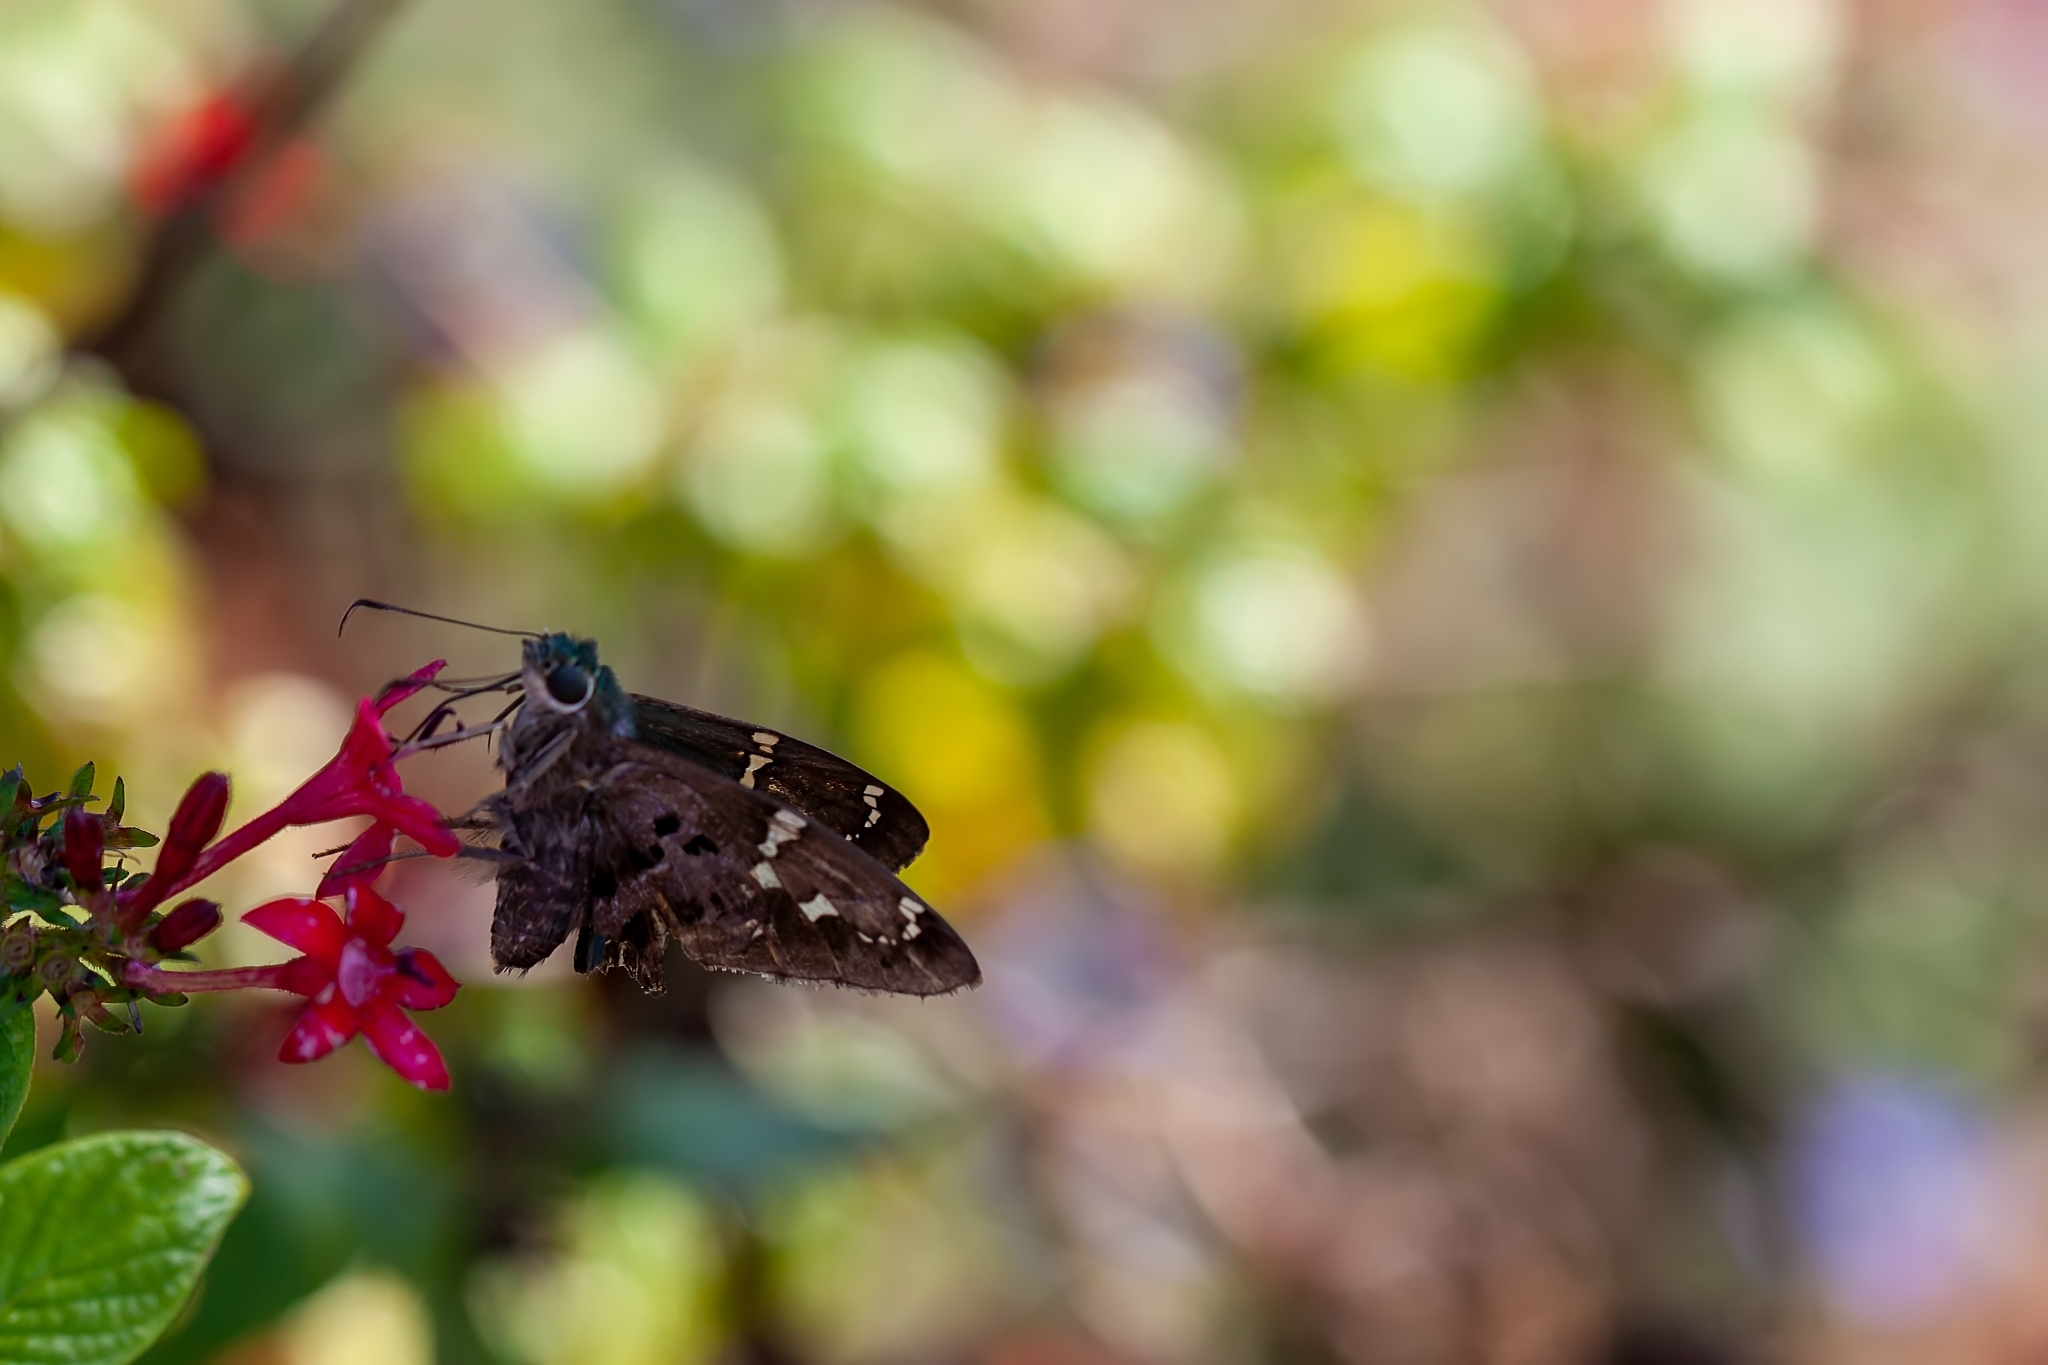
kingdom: Animalia
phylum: Arthropoda
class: Insecta
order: Lepidoptera
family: Hesperiidae
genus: Thorybes
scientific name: Thorybes
